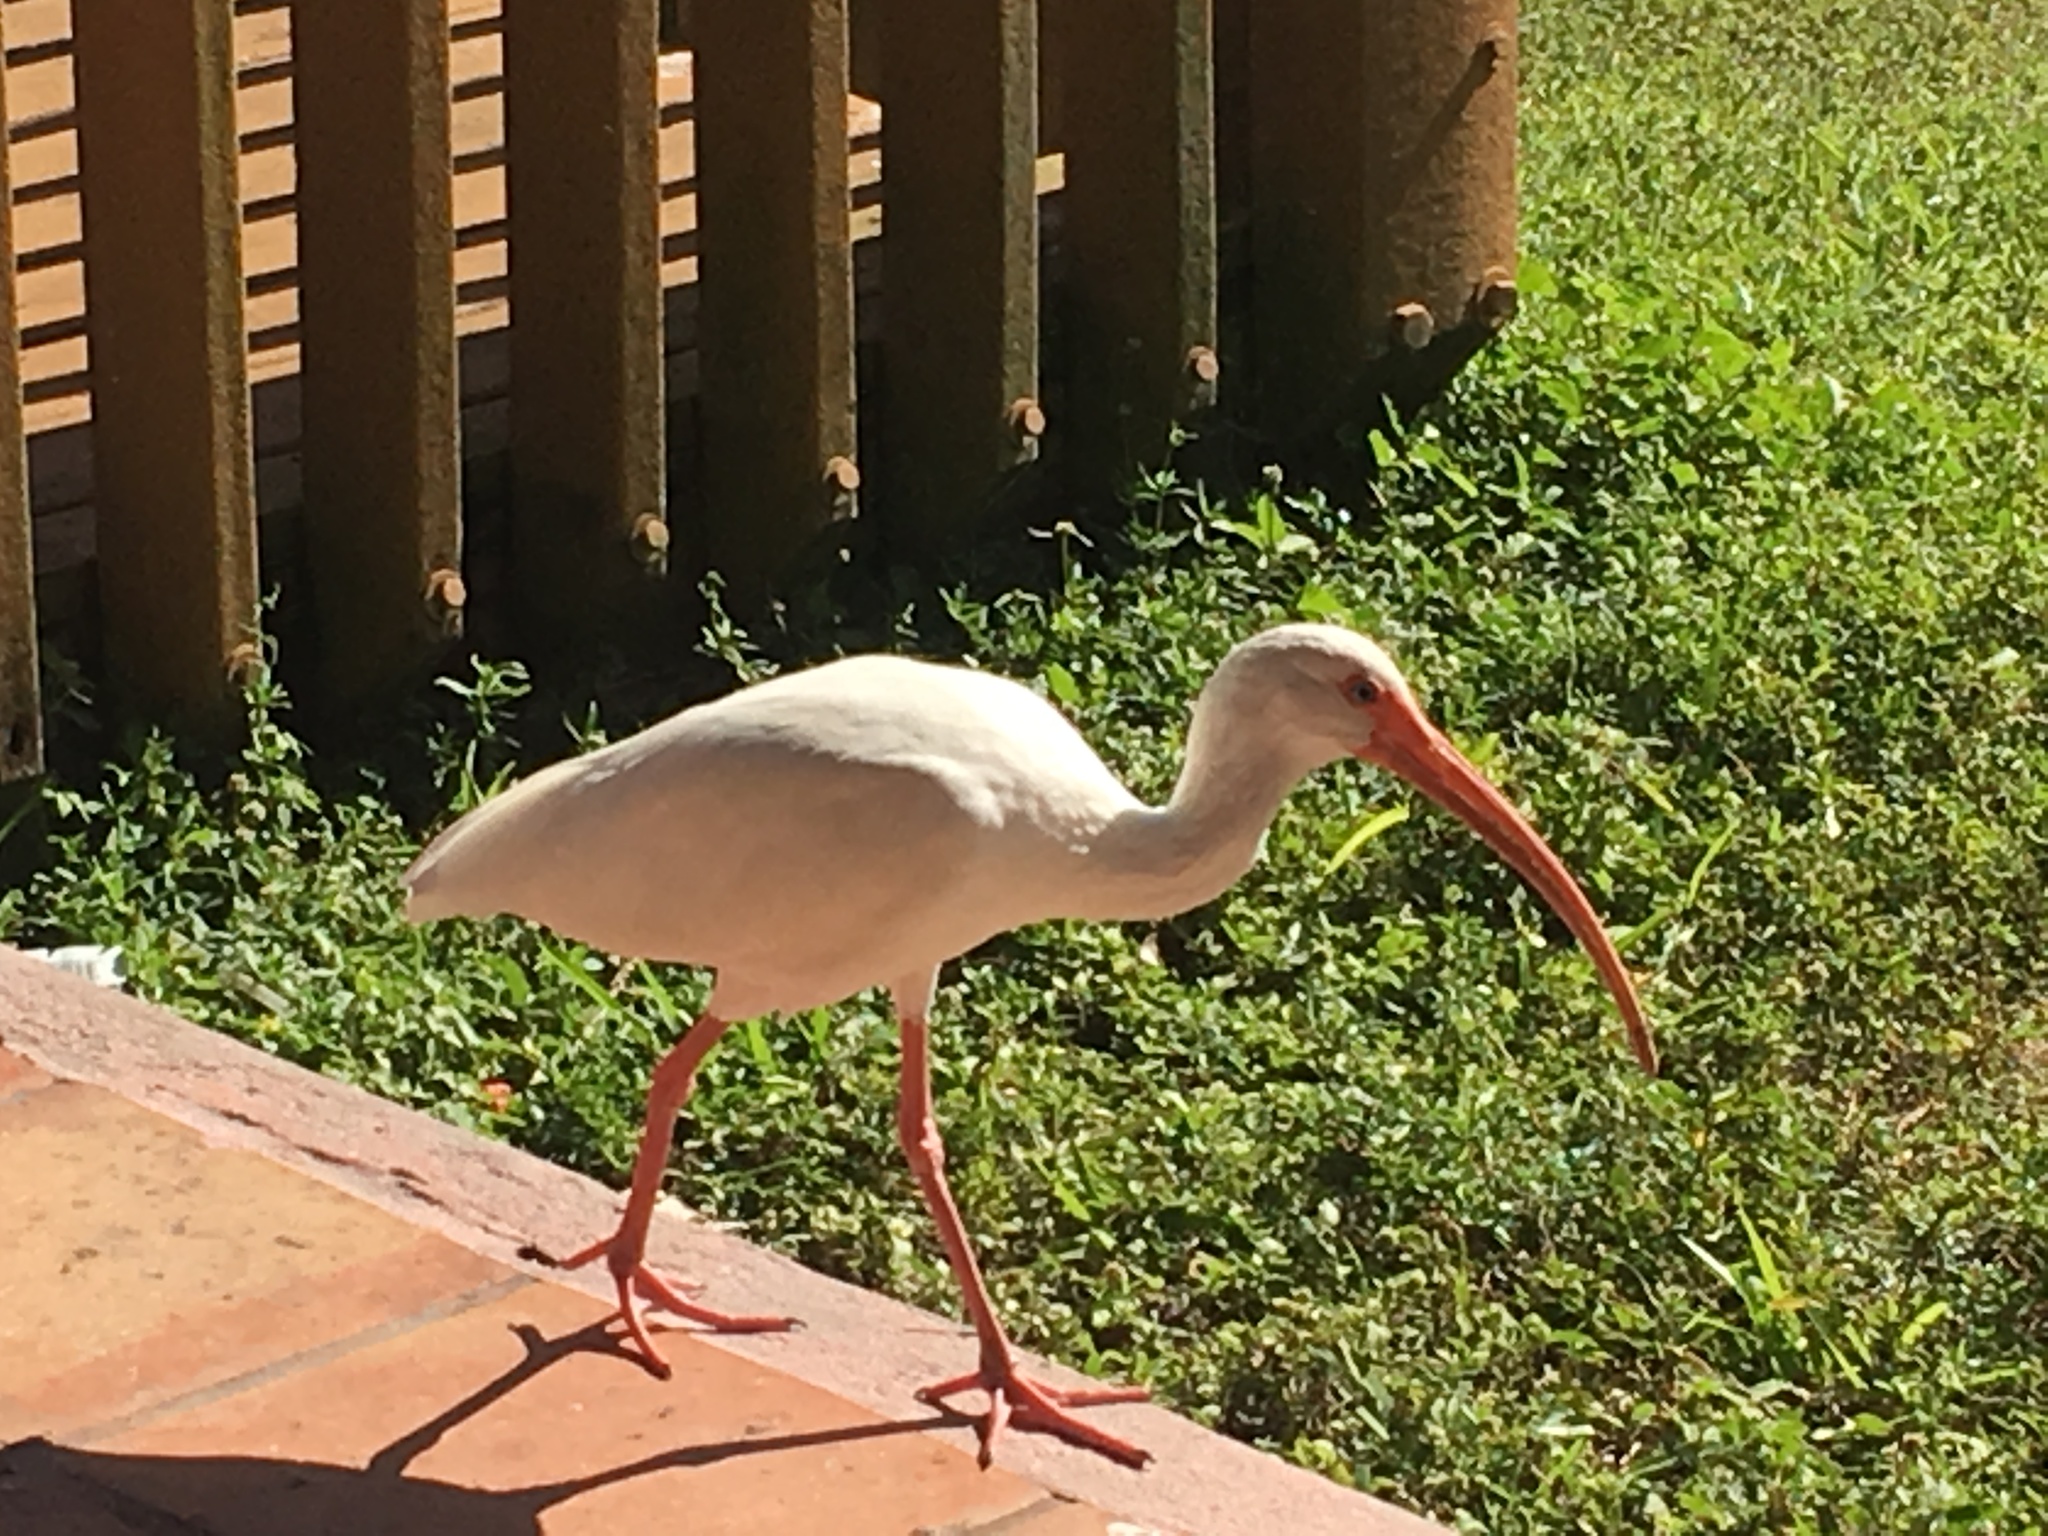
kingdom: Animalia
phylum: Chordata
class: Aves
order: Pelecaniformes
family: Threskiornithidae
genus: Eudocimus
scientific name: Eudocimus albus
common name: White ibis
